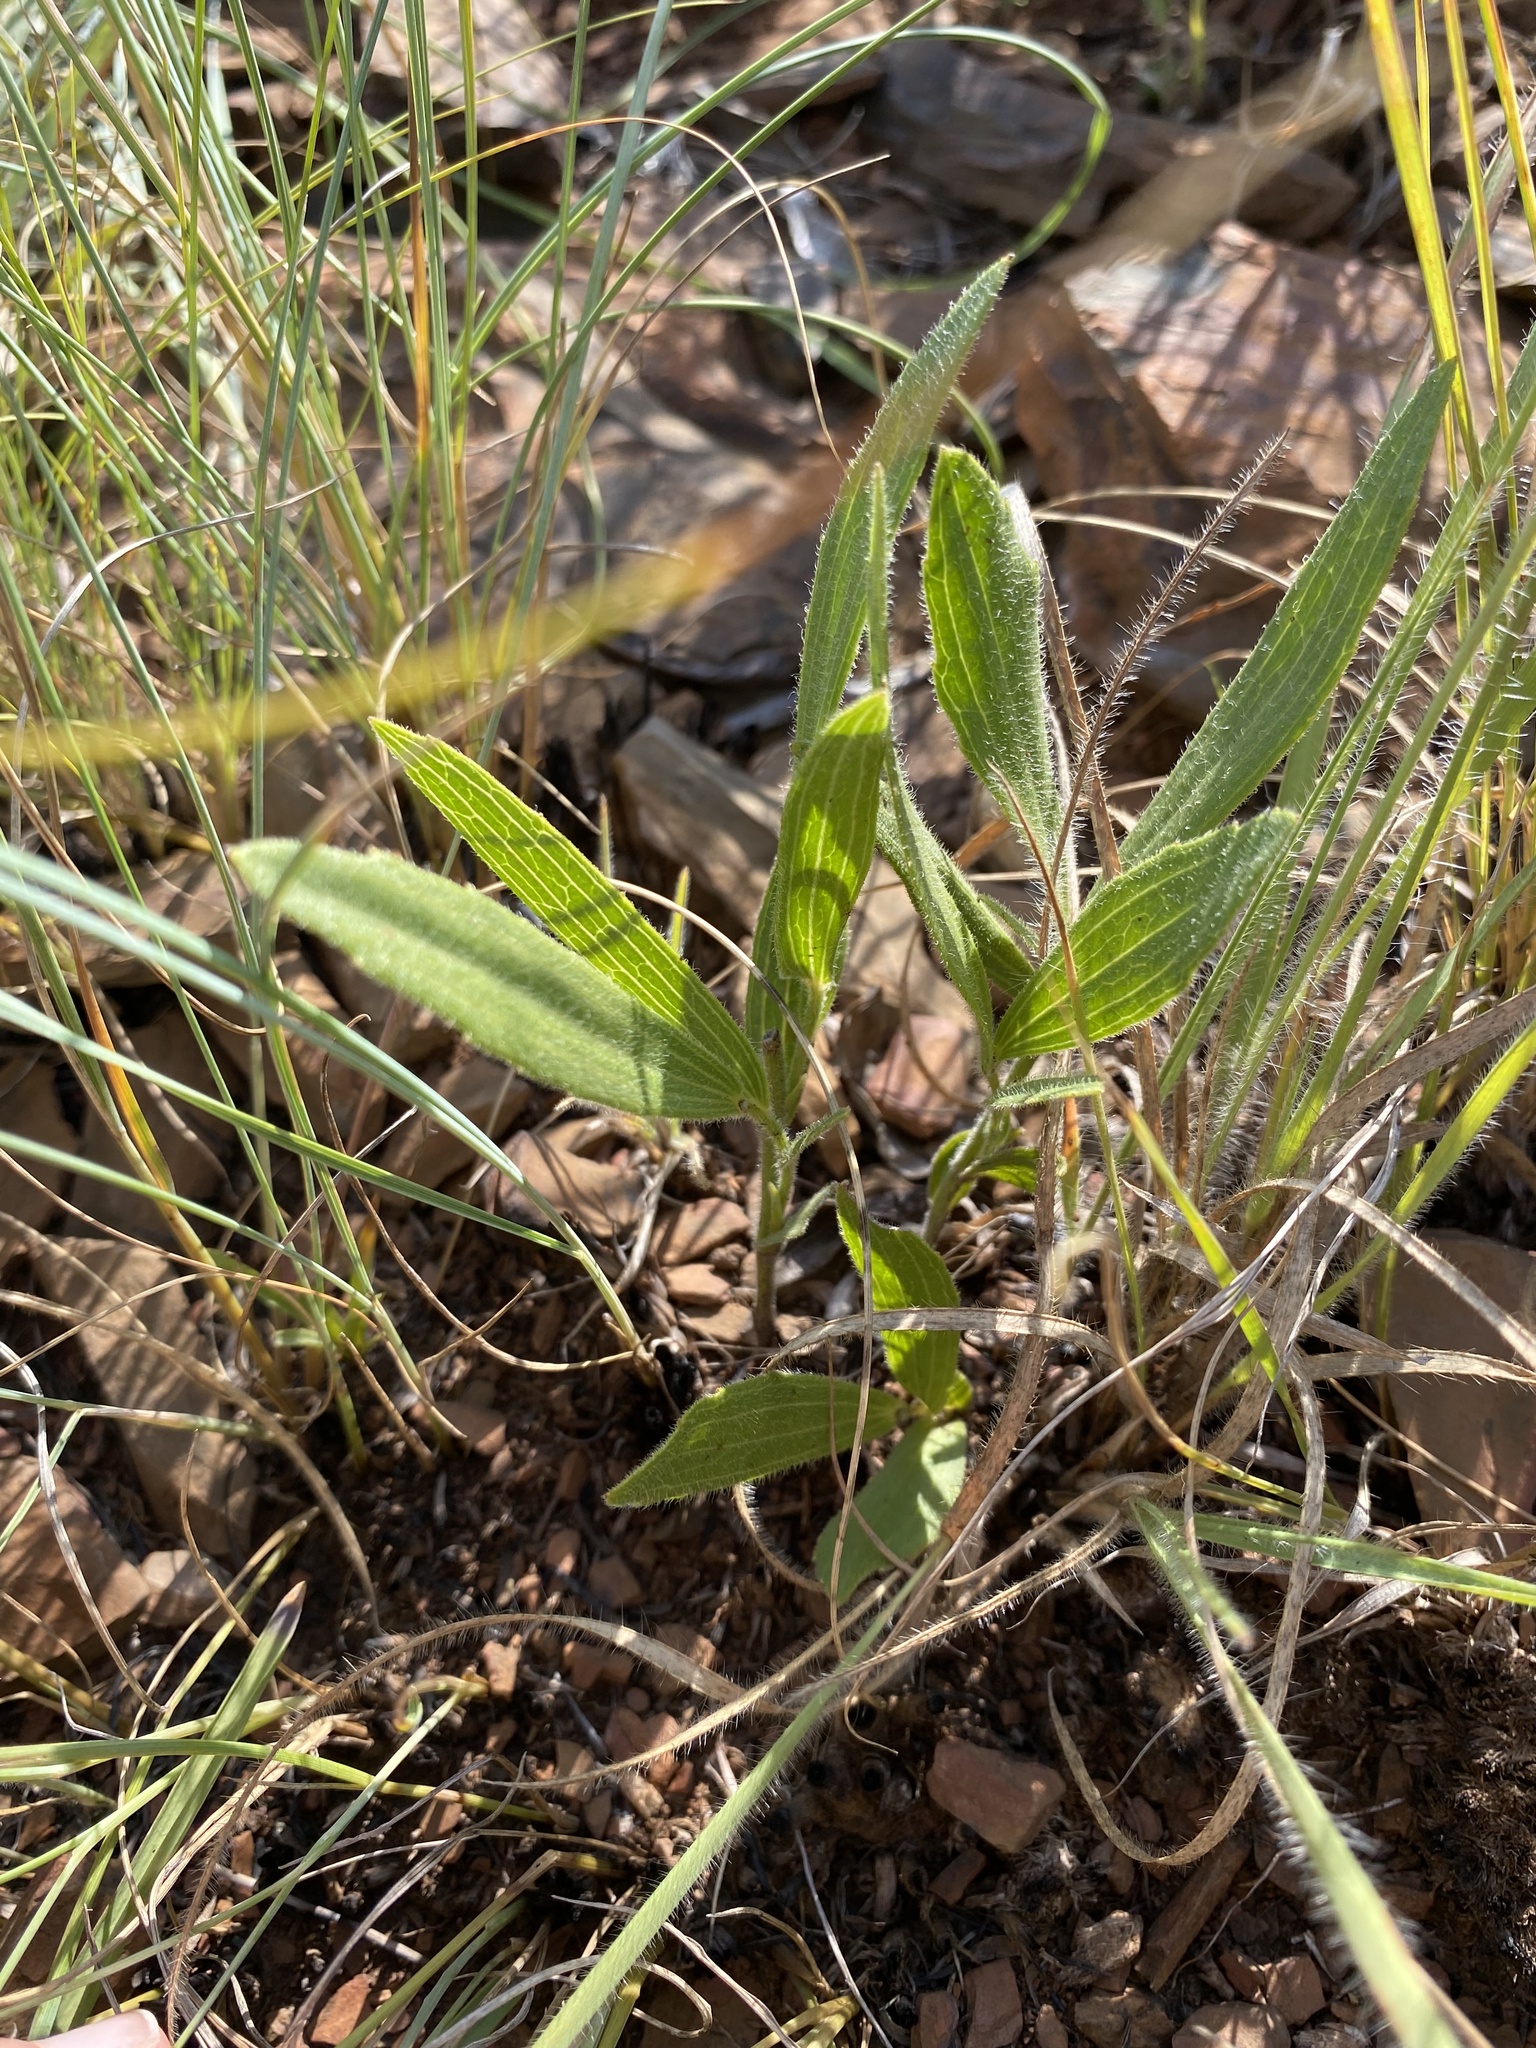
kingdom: Plantae
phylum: Tracheophyta
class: Magnoliopsida
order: Asterales
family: Asteraceae
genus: Afroaster
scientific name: Afroaster serrulatus
